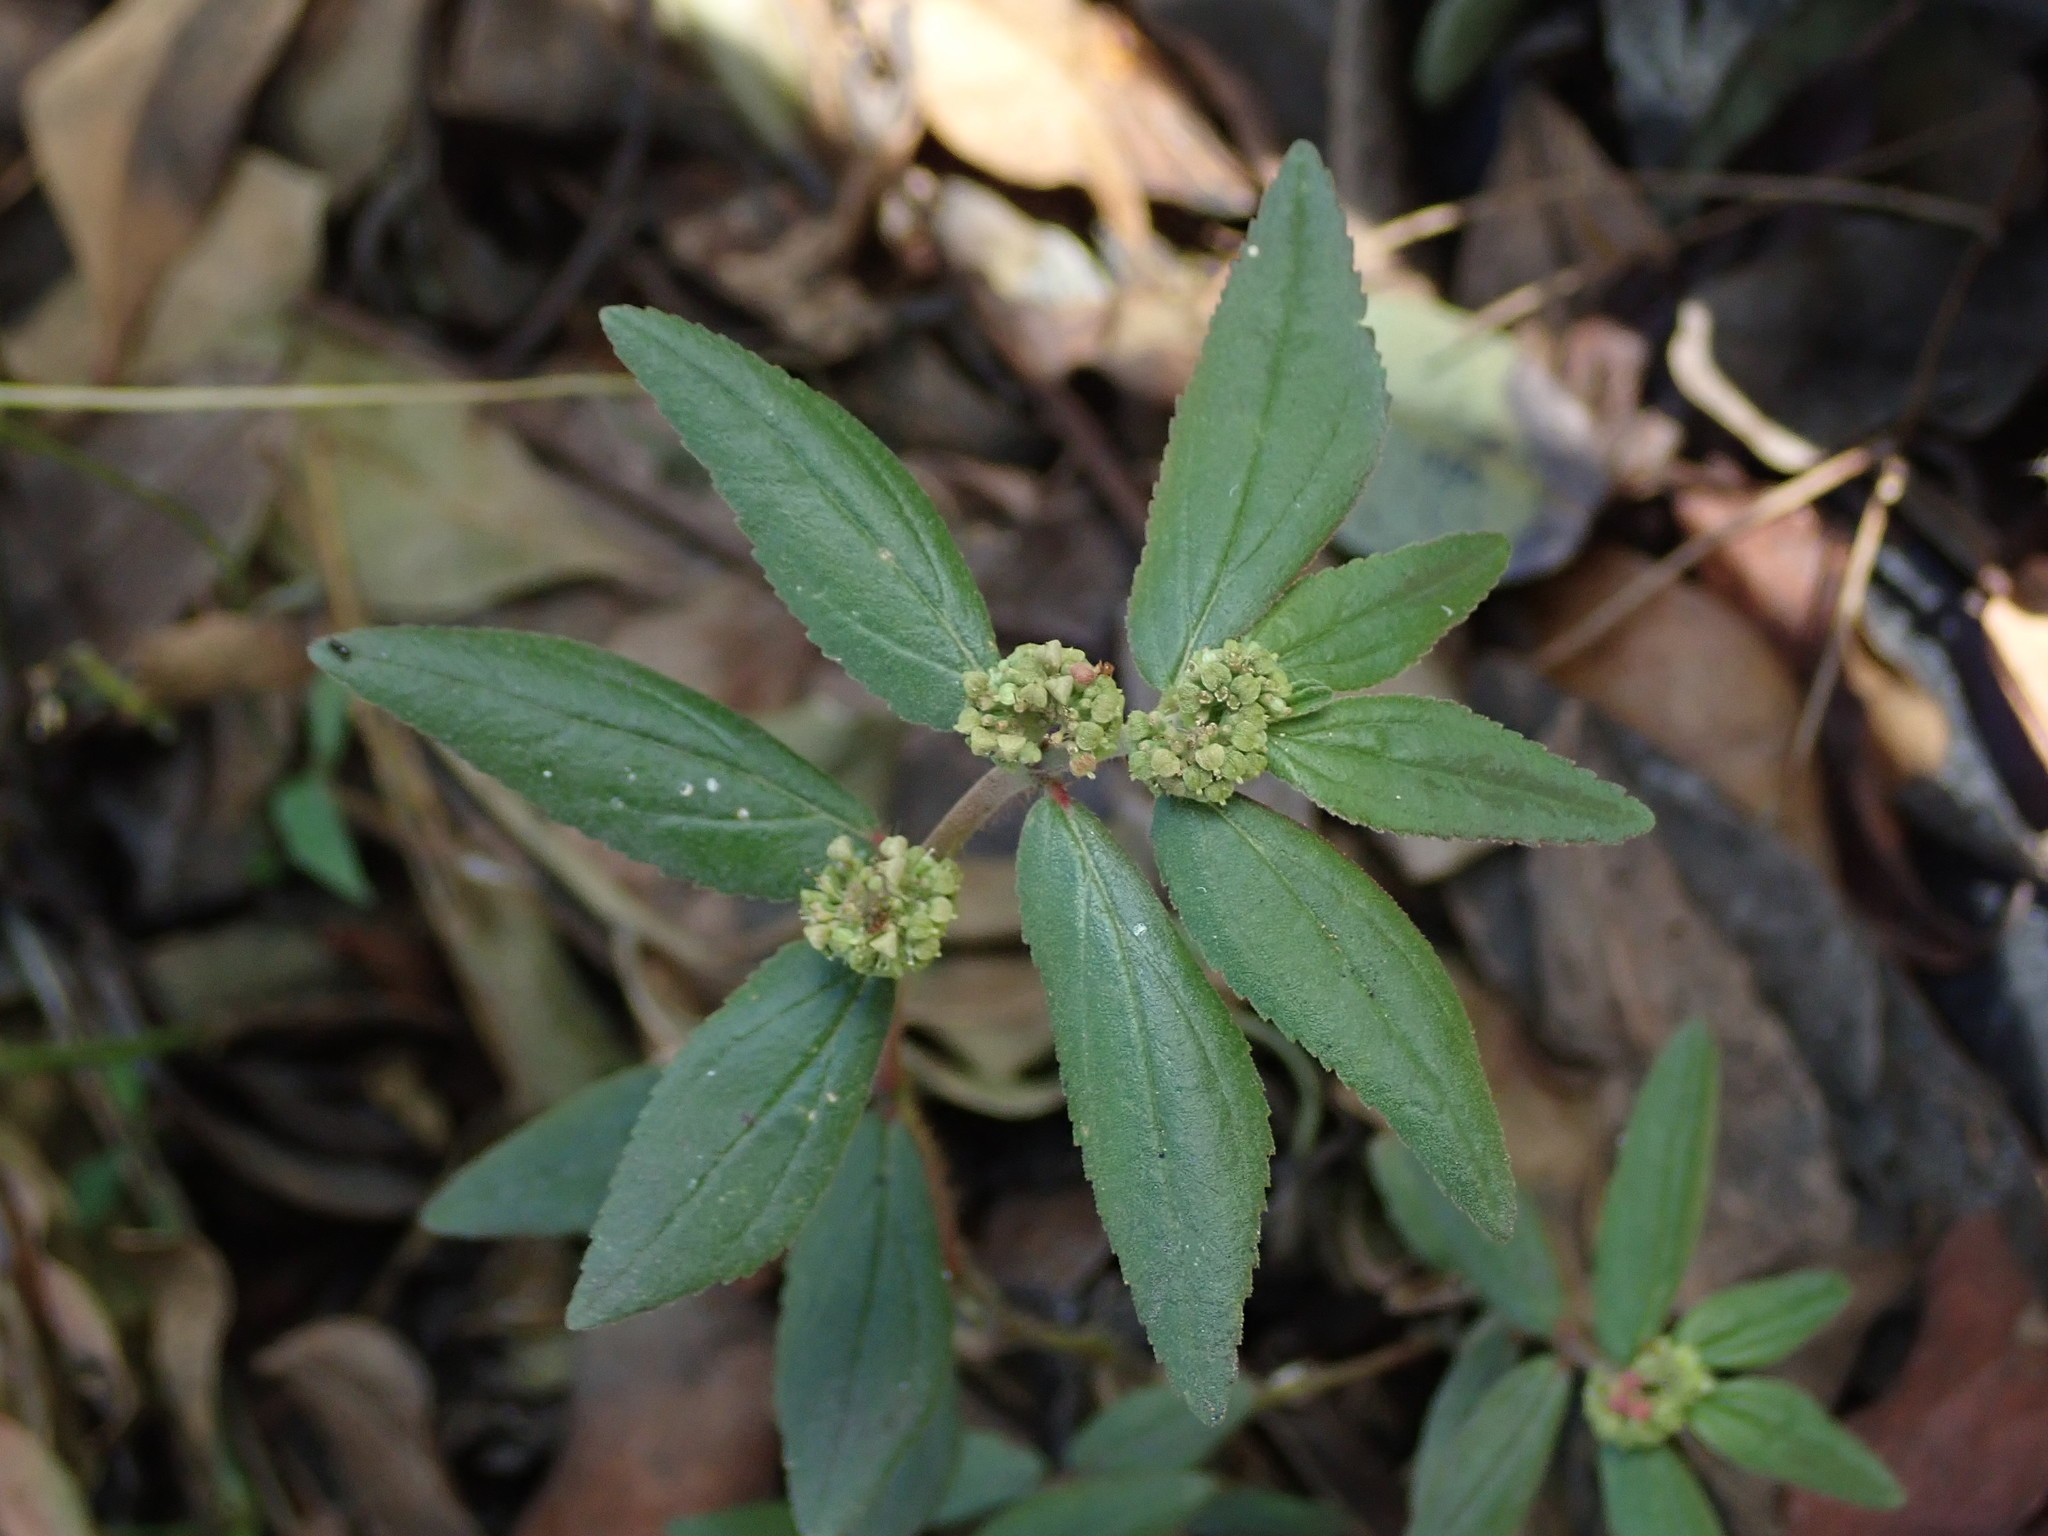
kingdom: Plantae
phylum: Tracheophyta
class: Magnoliopsida
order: Malpighiales
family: Euphorbiaceae
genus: Euphorbia
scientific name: Euphorbia hirta
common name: Pillpod sandmat
